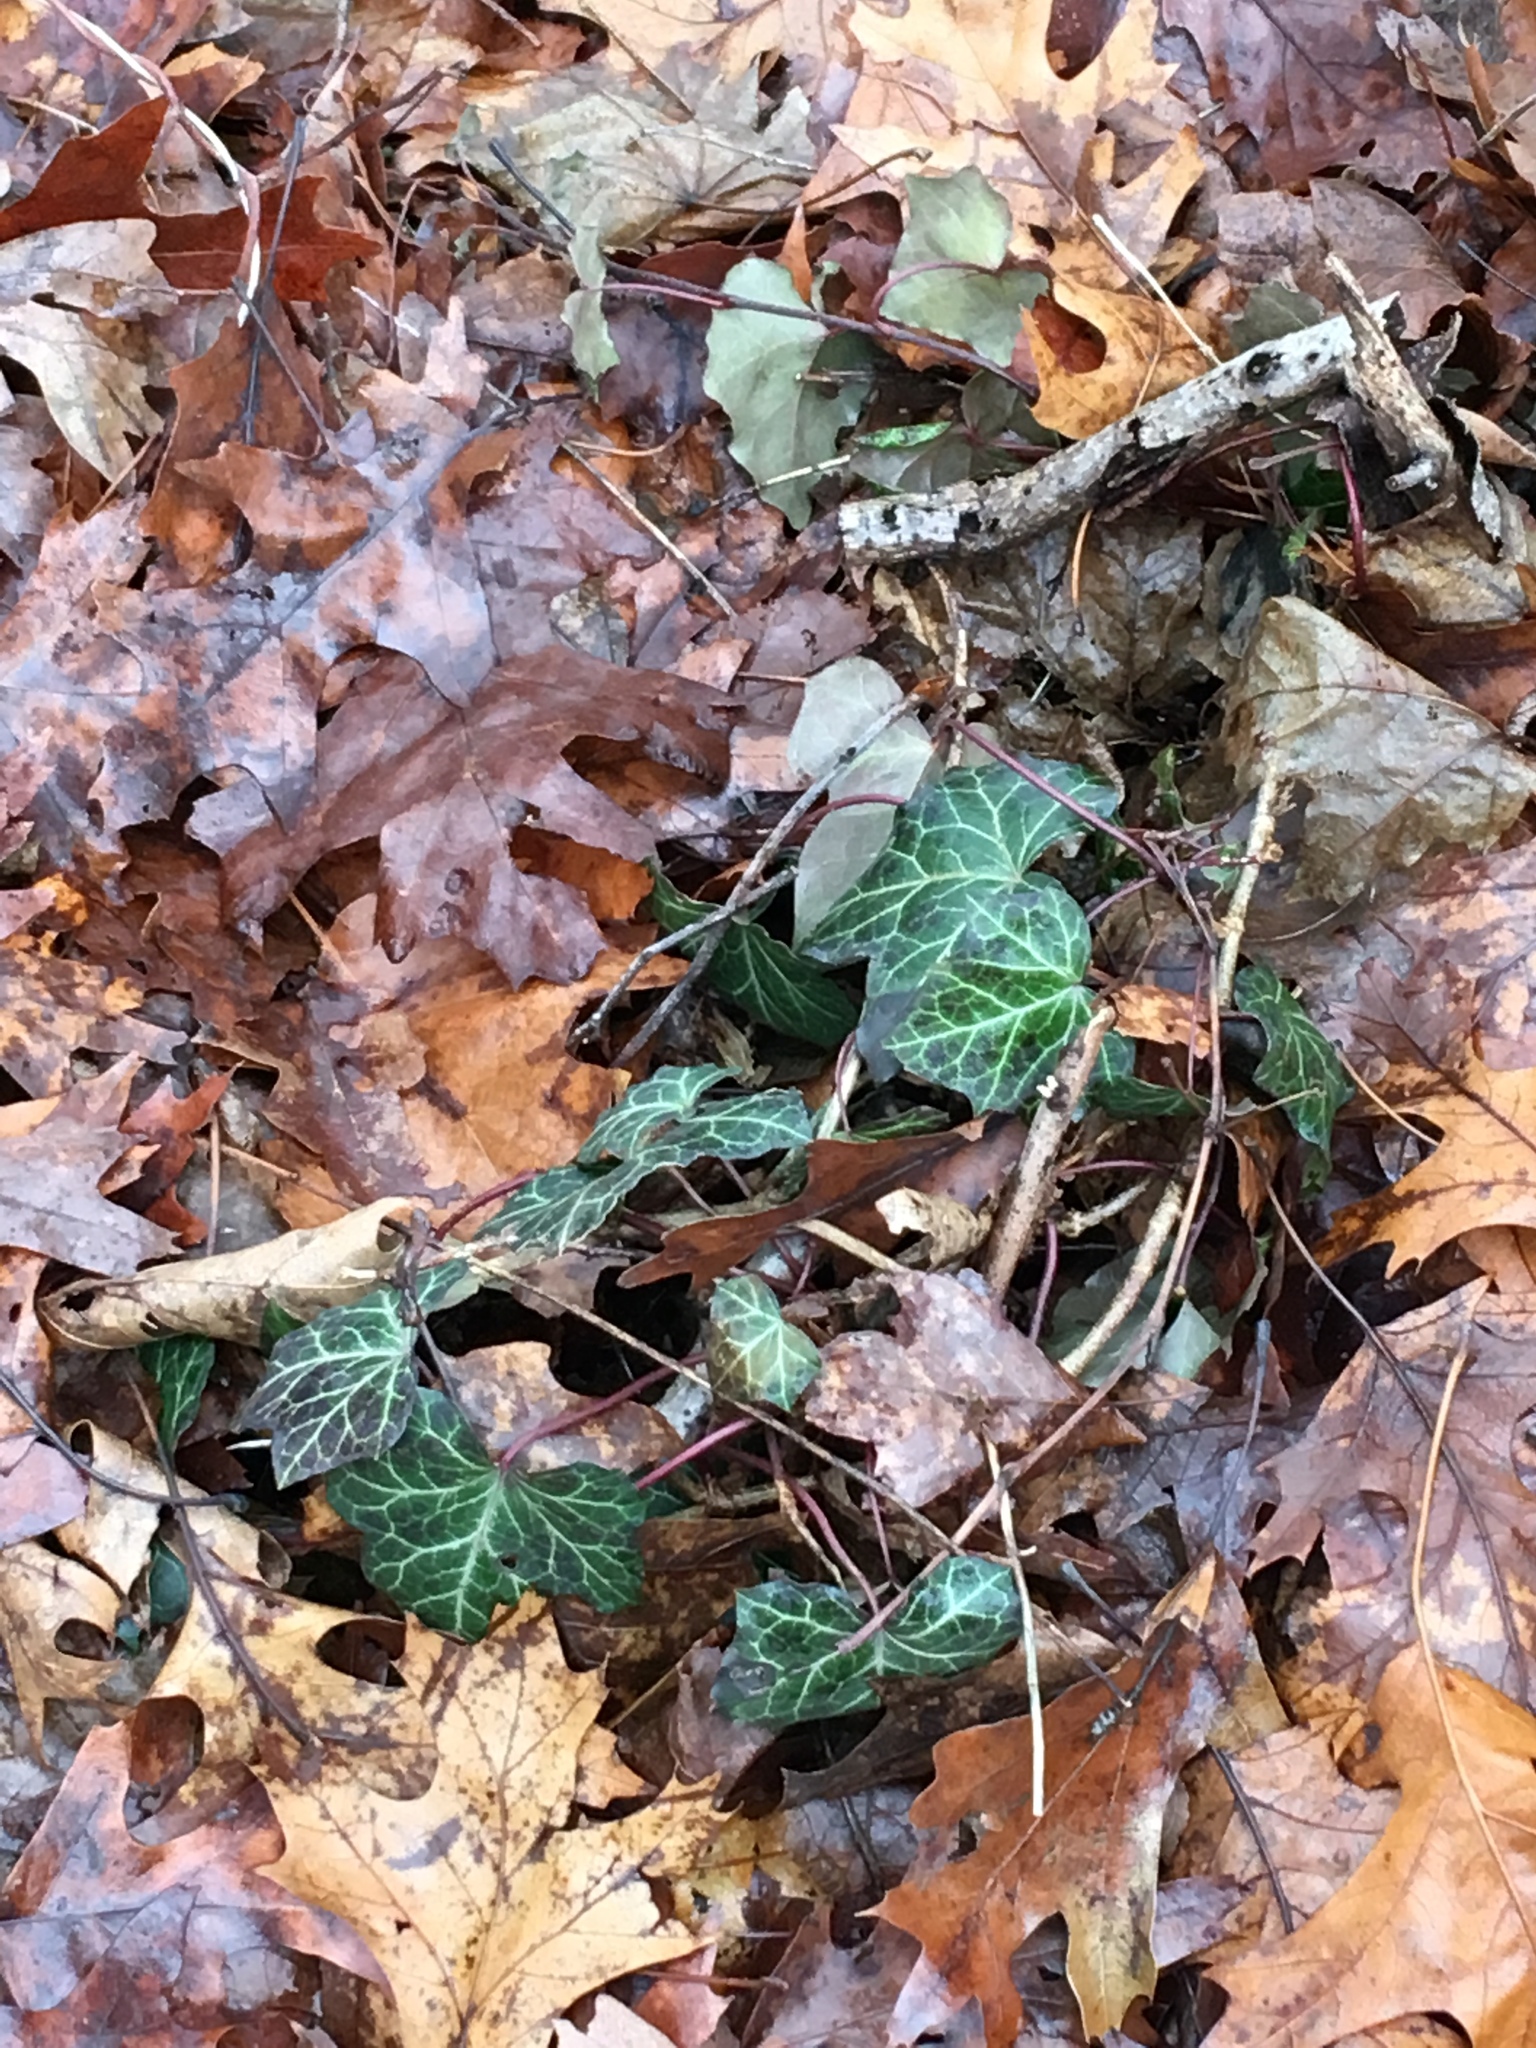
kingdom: Plantae
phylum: Tracheophyta
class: Magnoliopsida
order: Apiales
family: Araliaceae
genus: Hedera
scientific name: Hedera helix
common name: Ivy
